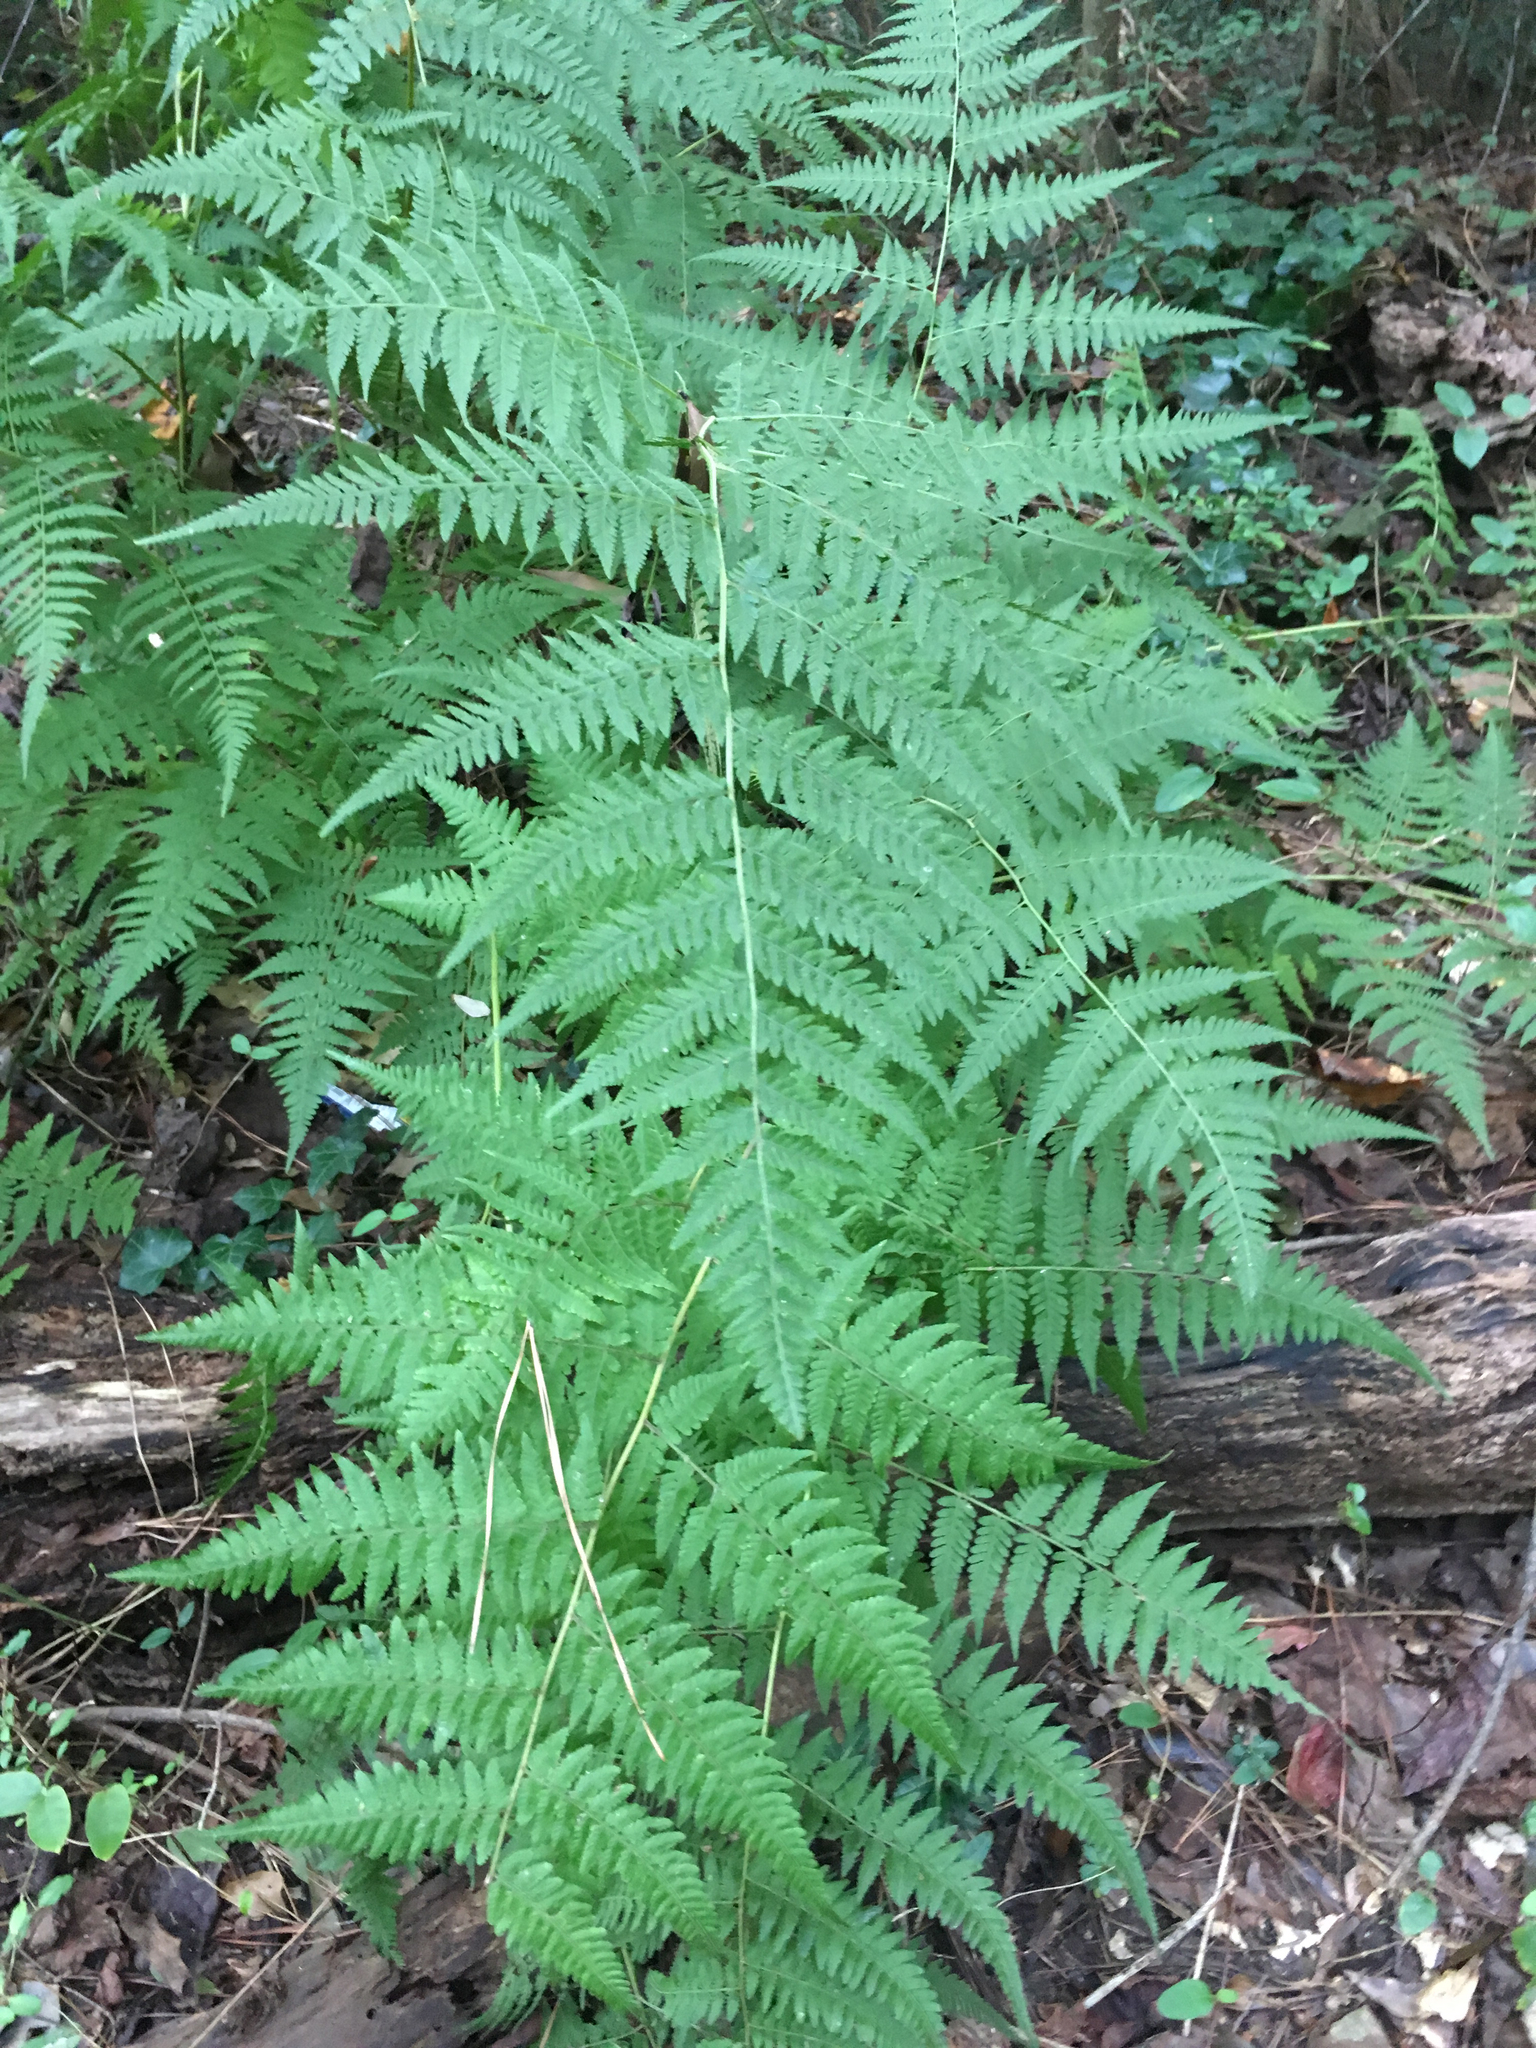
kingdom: Plantae
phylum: Tracheophyta
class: Polypodiopsida
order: Polypodiales
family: Thelypteridaceae
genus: Macrothelypteris
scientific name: Macrothelypteris torresiana
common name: Swordfern
